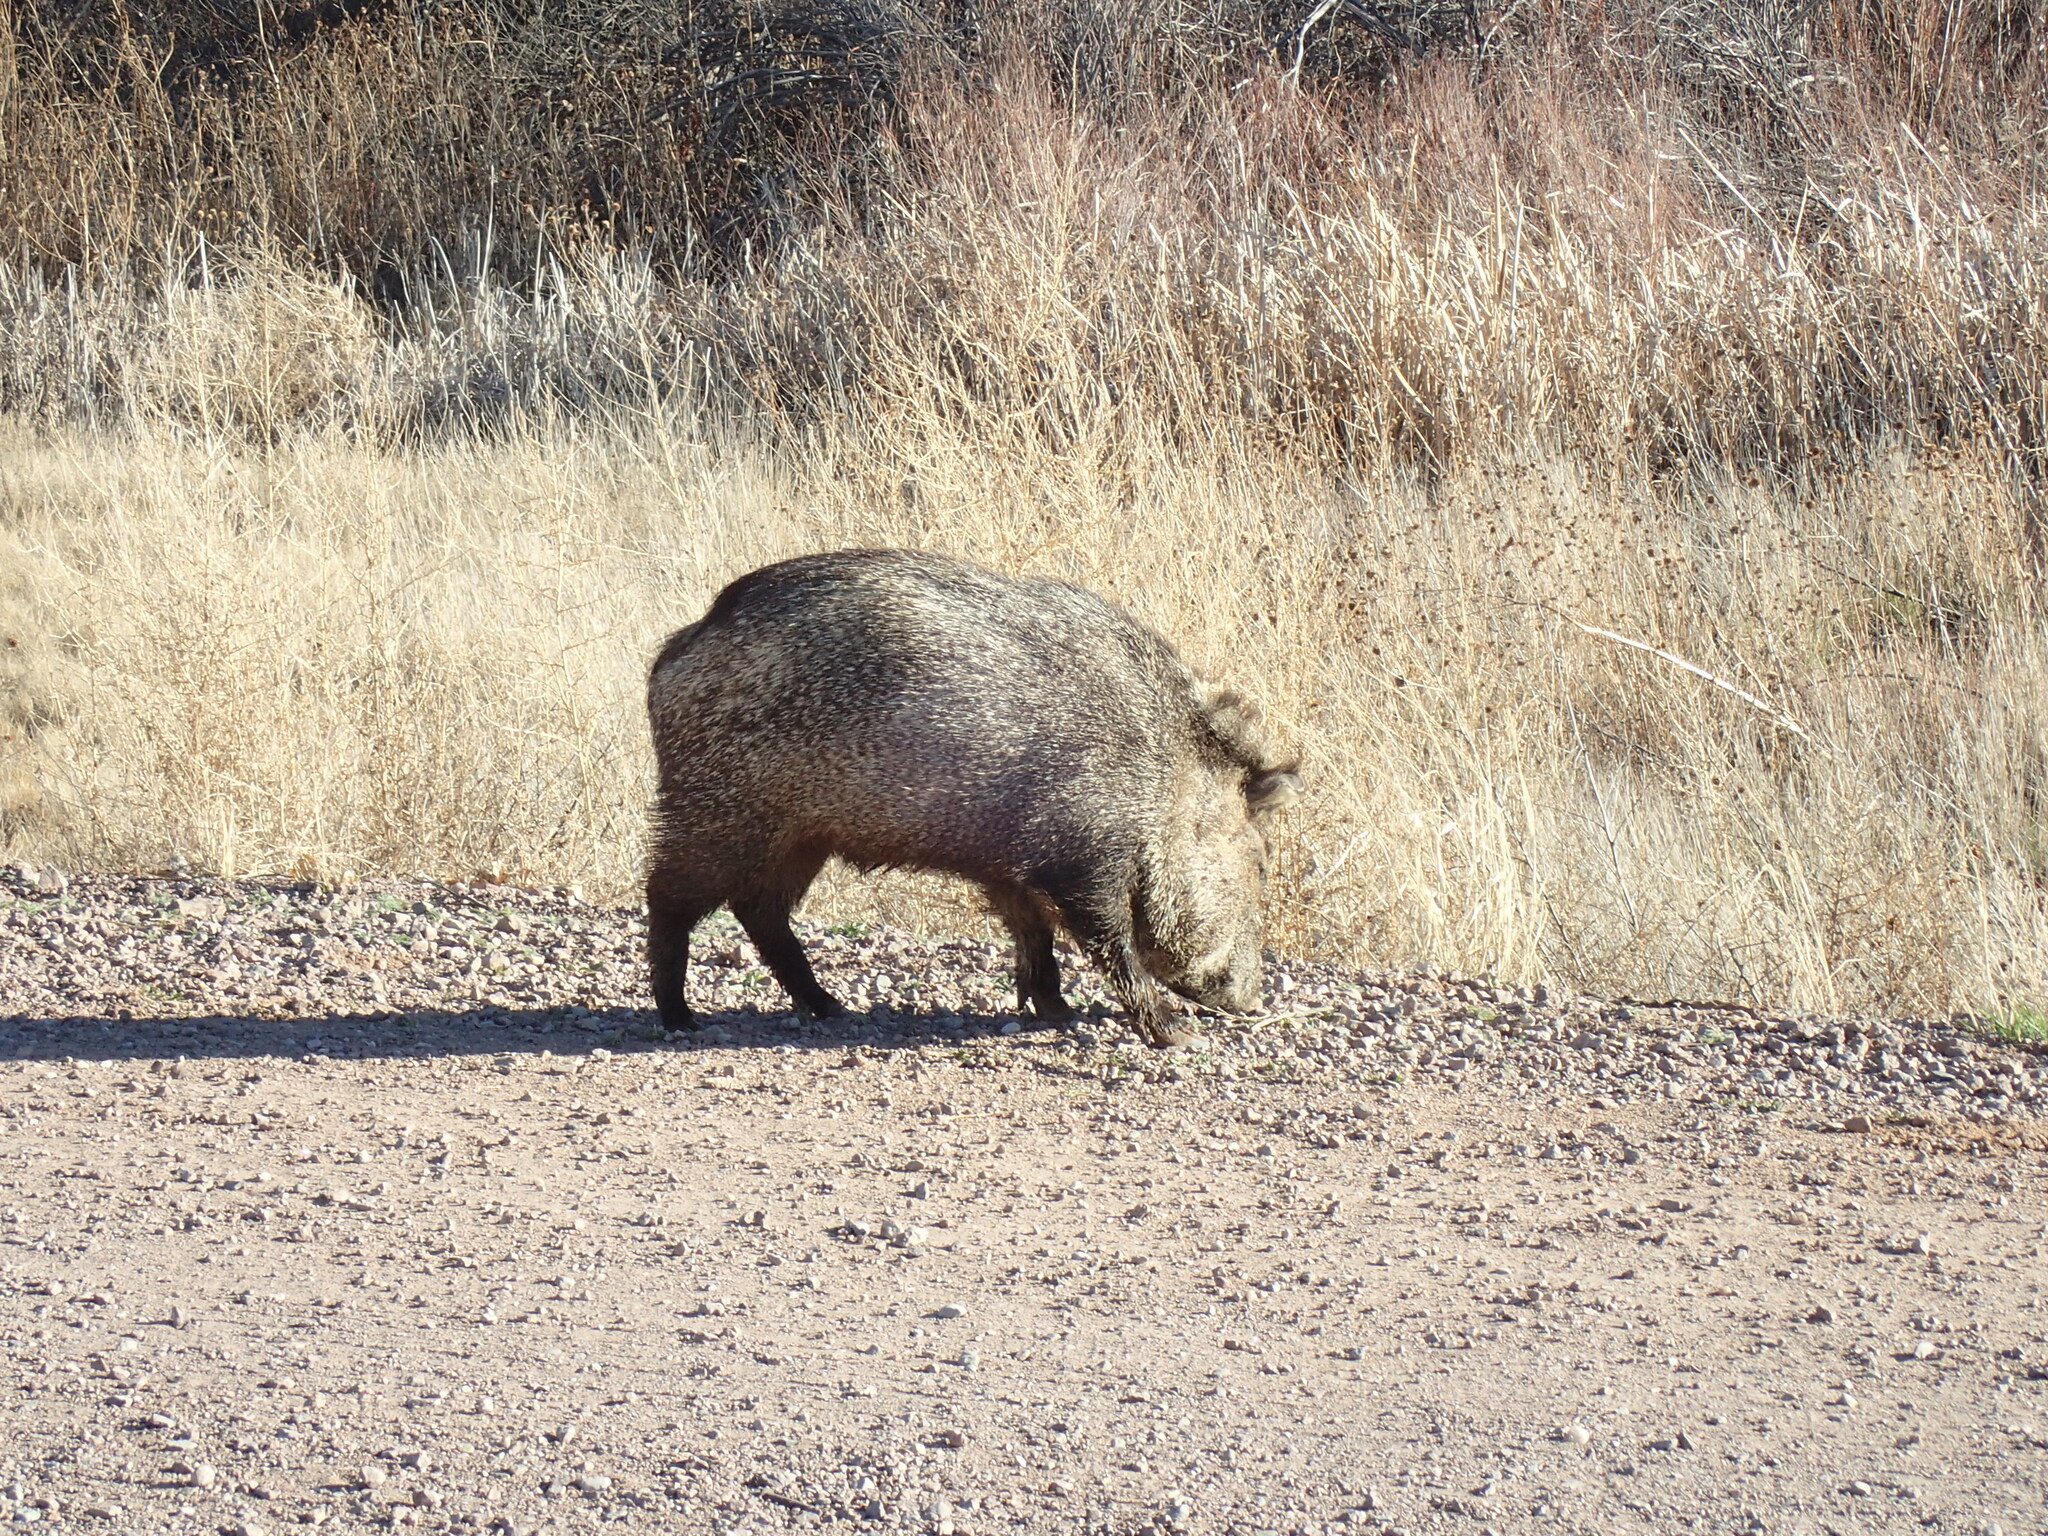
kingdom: Animalia
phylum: Chordata
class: Mammalia
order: Artiodactyla
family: Tayassuidae
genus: Pecari
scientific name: Pecari tajacu
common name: Collared peccary
